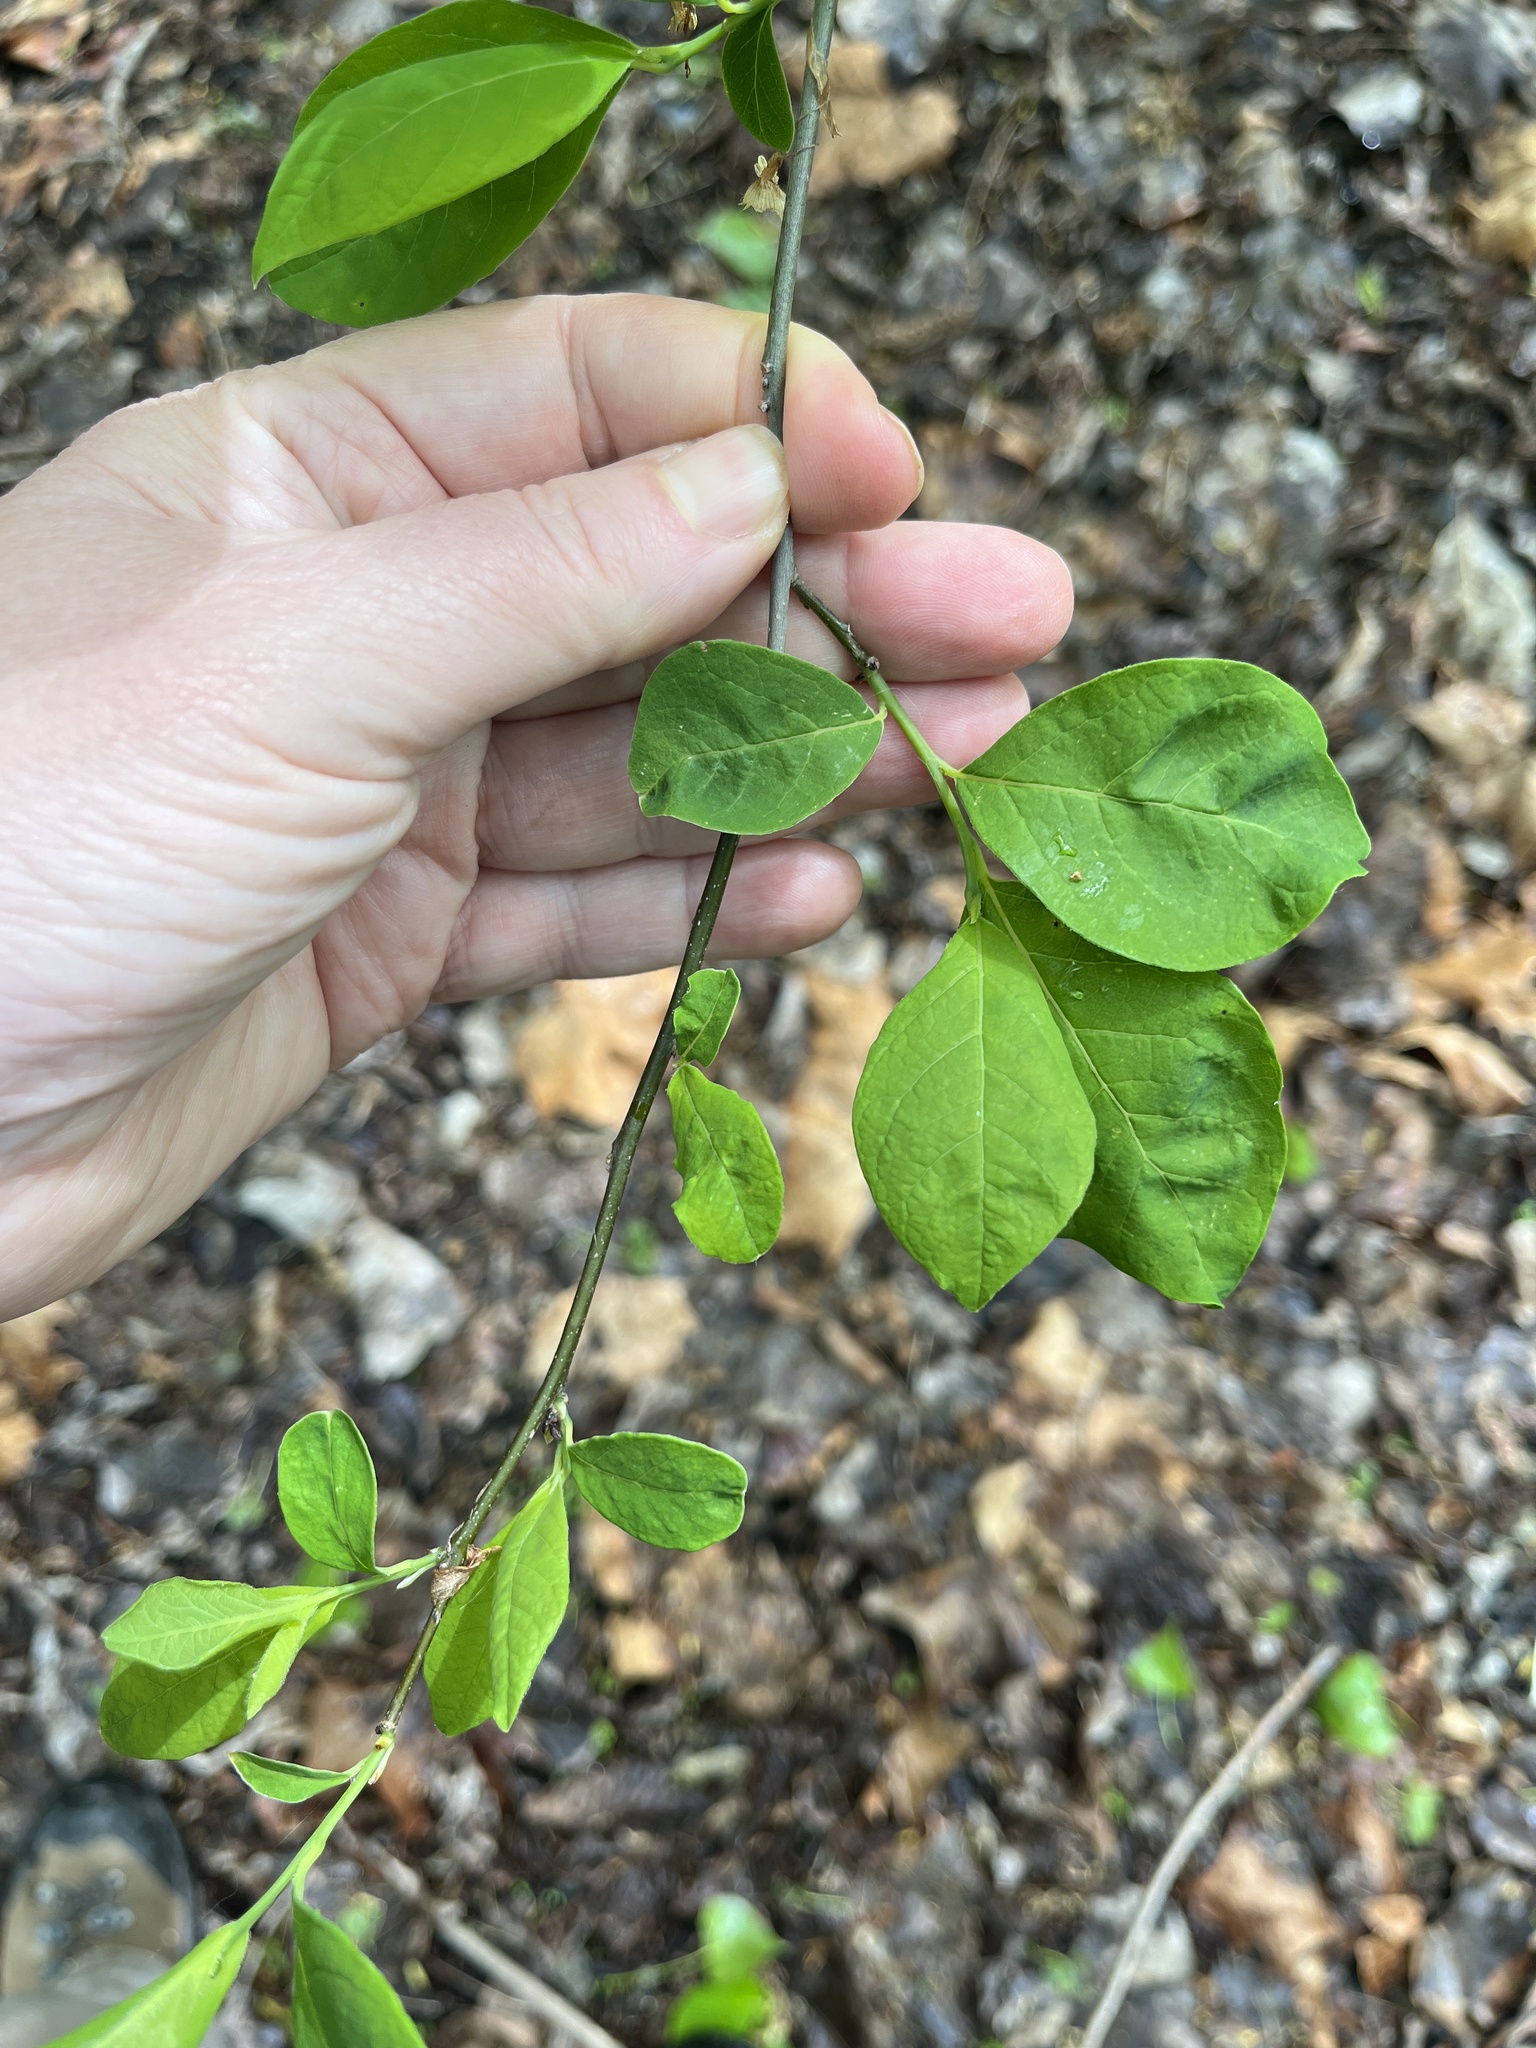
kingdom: Plantae
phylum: Tracheophyta
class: Magnoliopsida
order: Laurales
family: Lauraceae
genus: Lindera
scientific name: Lindera benzoin
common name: Spicebush
